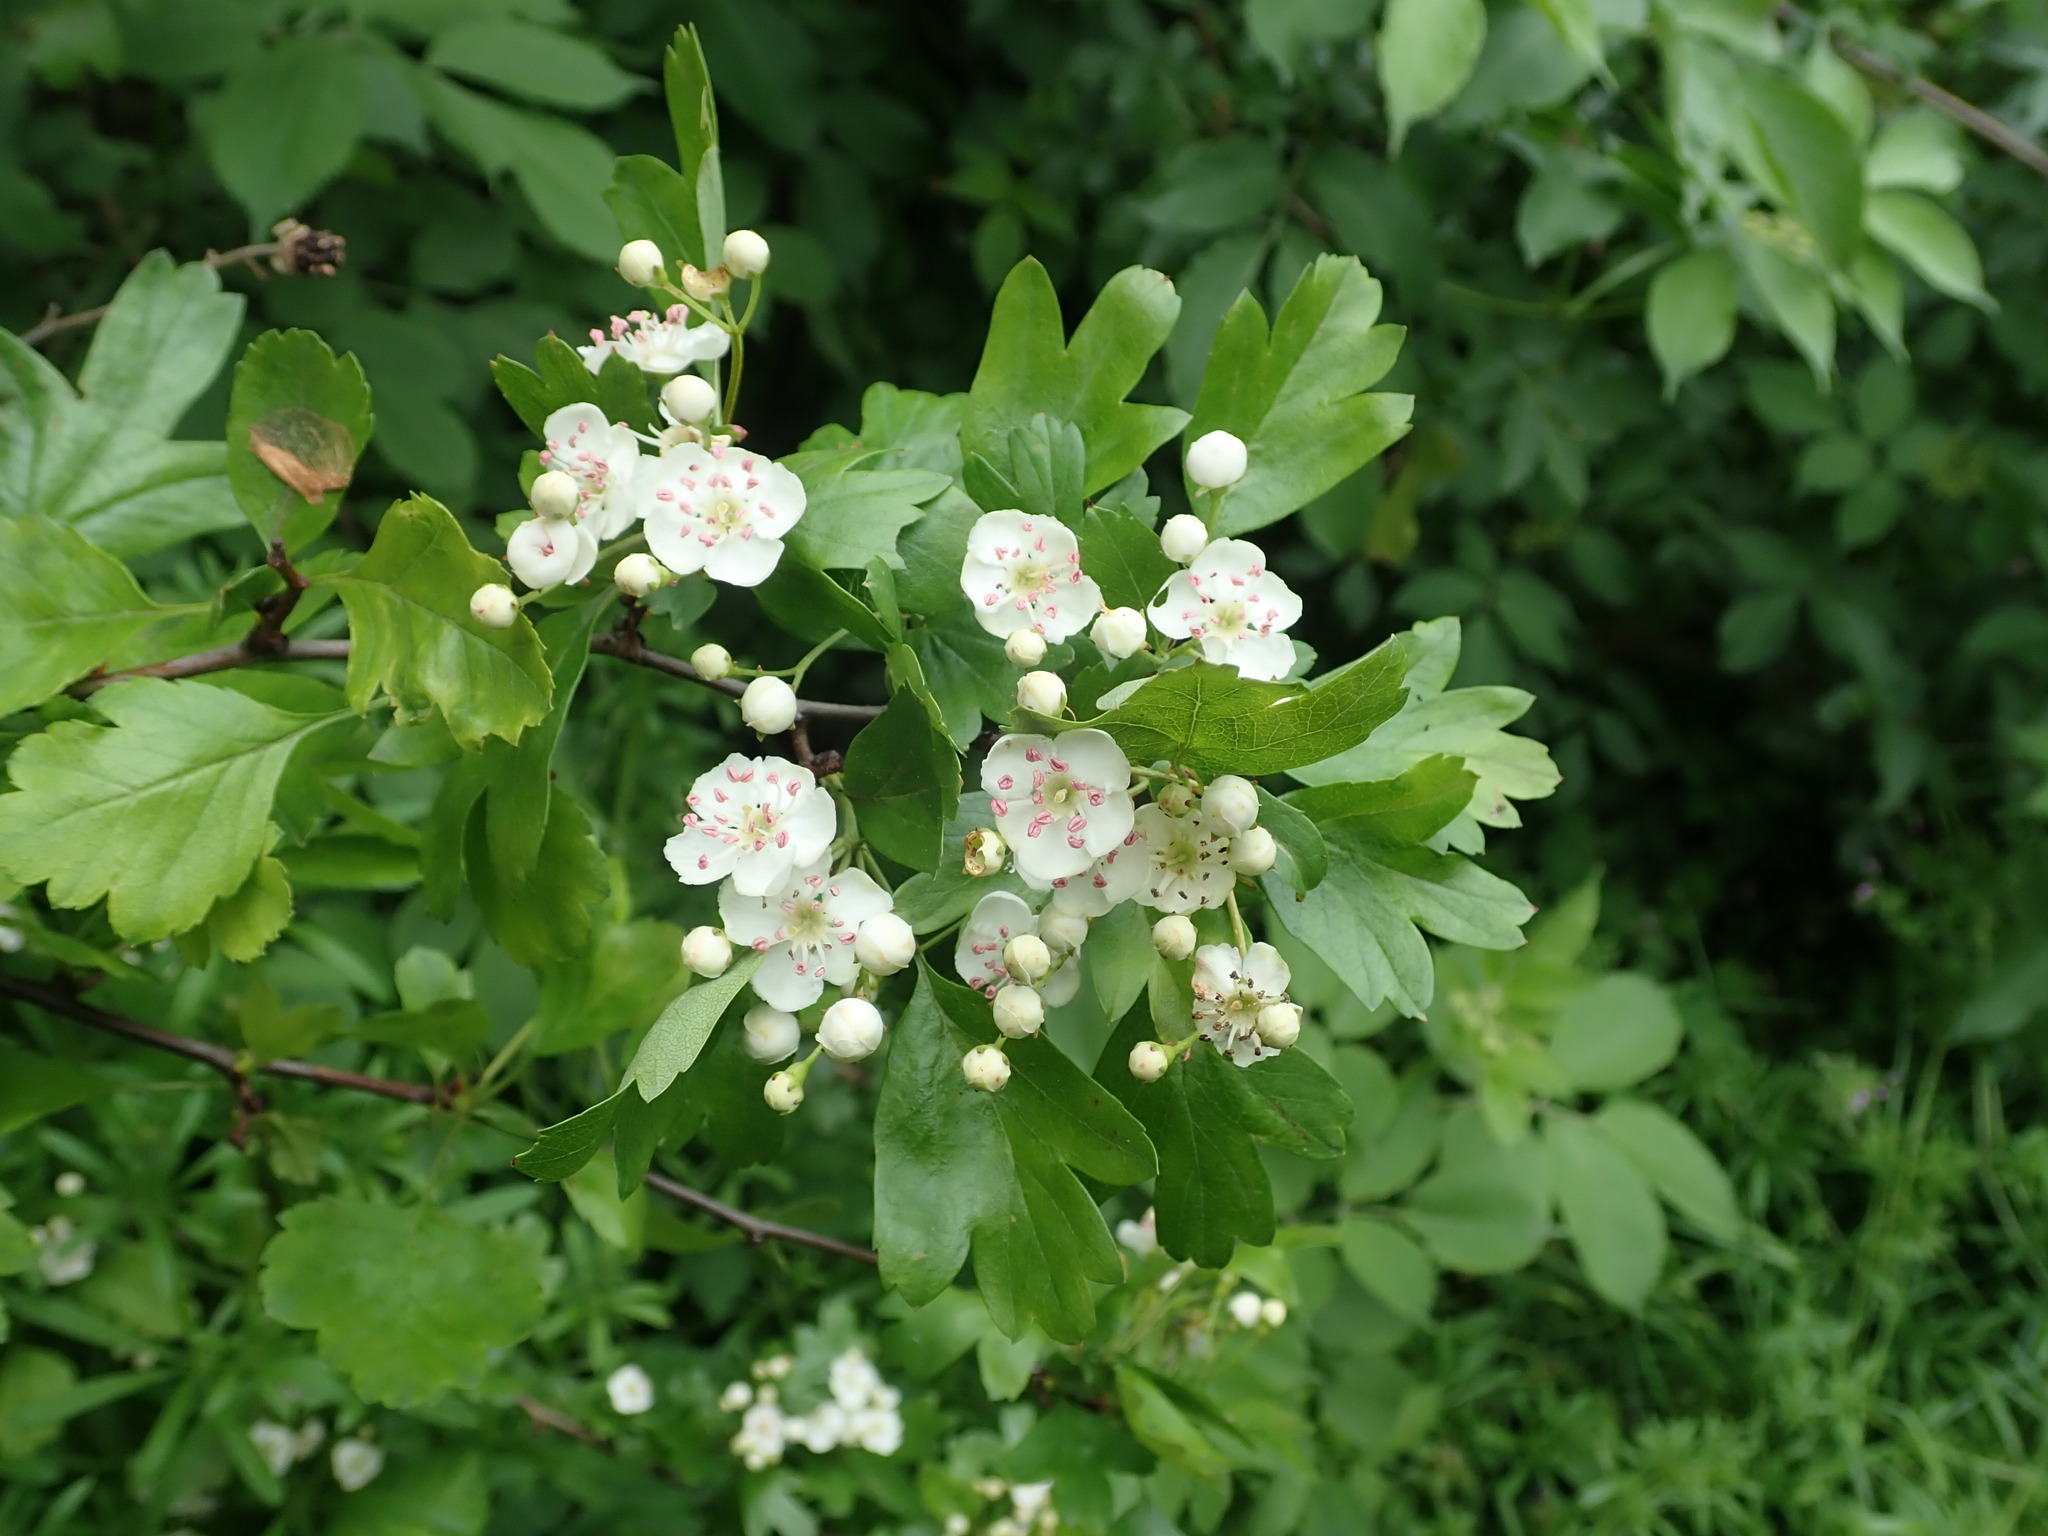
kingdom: Plantae
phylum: Tracheophyta
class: Magnoliopsida
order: Rosales
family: Rosaceae
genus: Crataegus
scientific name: Crataegus monogyna
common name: Hawthorn
